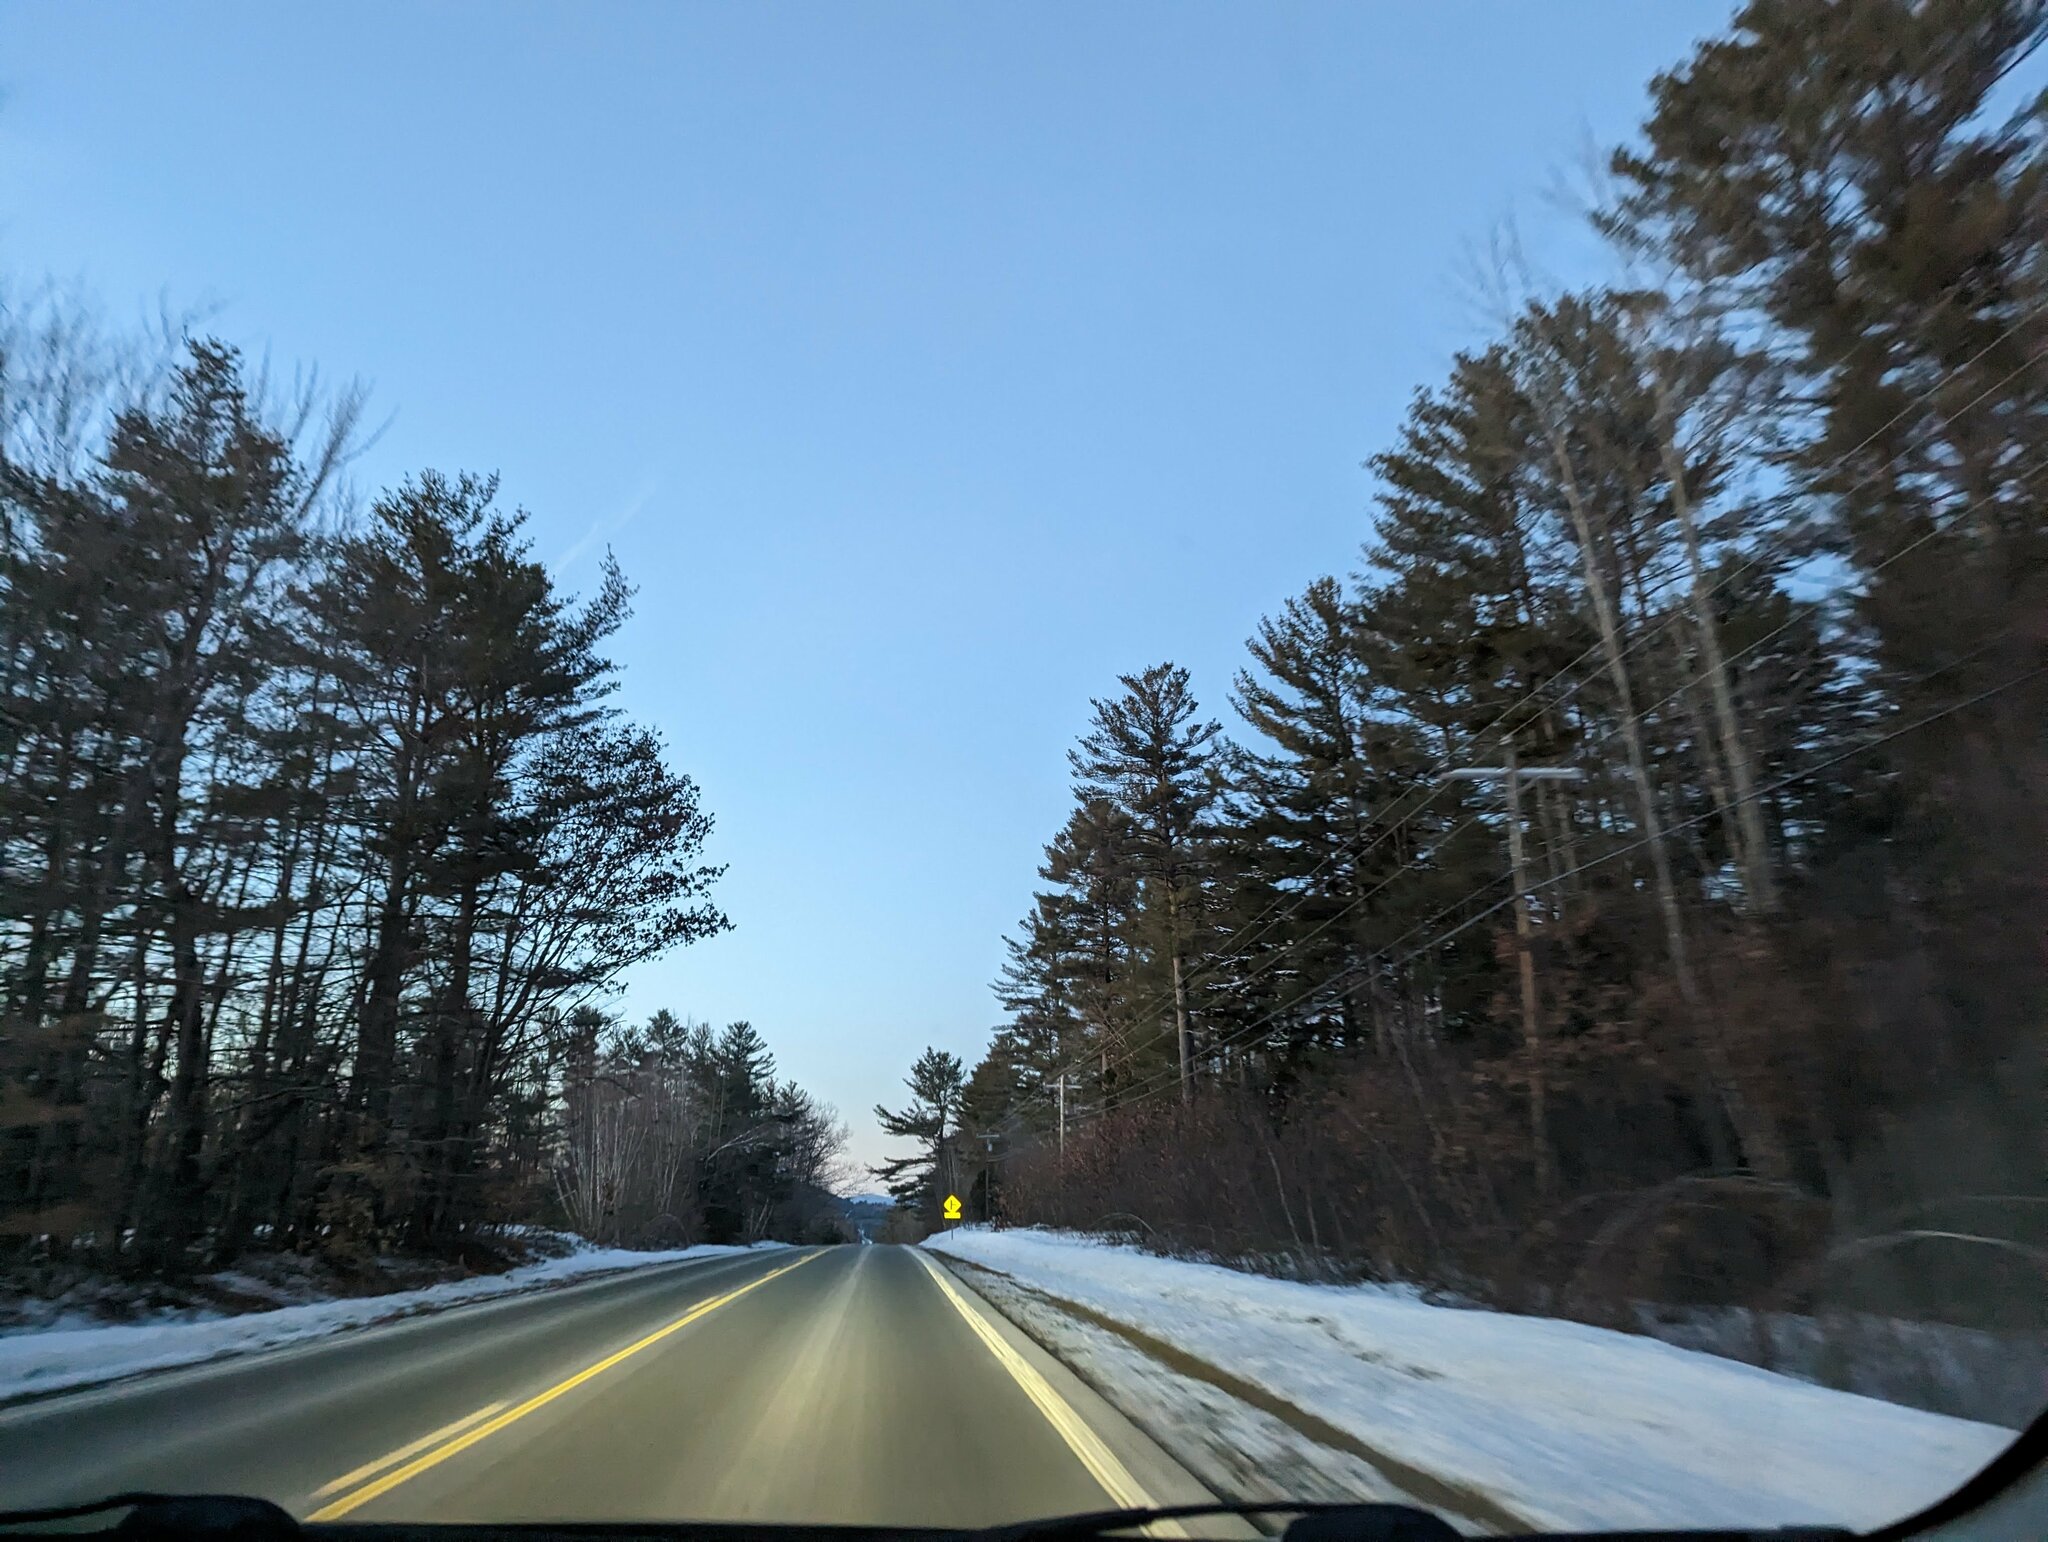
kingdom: Plantae
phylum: Tracheophyta
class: Pinopsida
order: Pinales
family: Pinaceae
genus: Pinus
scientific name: Pinus strobus
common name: Weymouth pine
